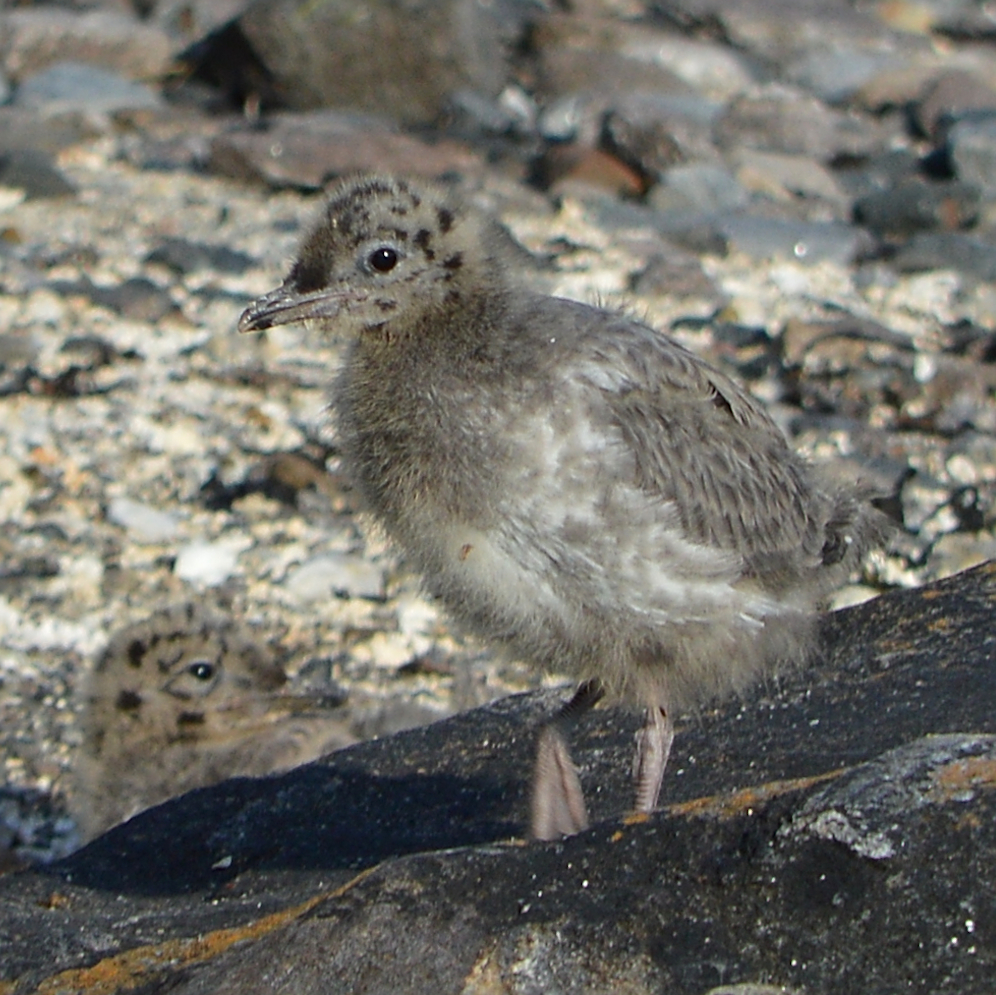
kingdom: Animalia
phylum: Chordata
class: Aves
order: Charadriiformes
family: Laridae
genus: Larus
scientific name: Larus canus
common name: Mew gull
